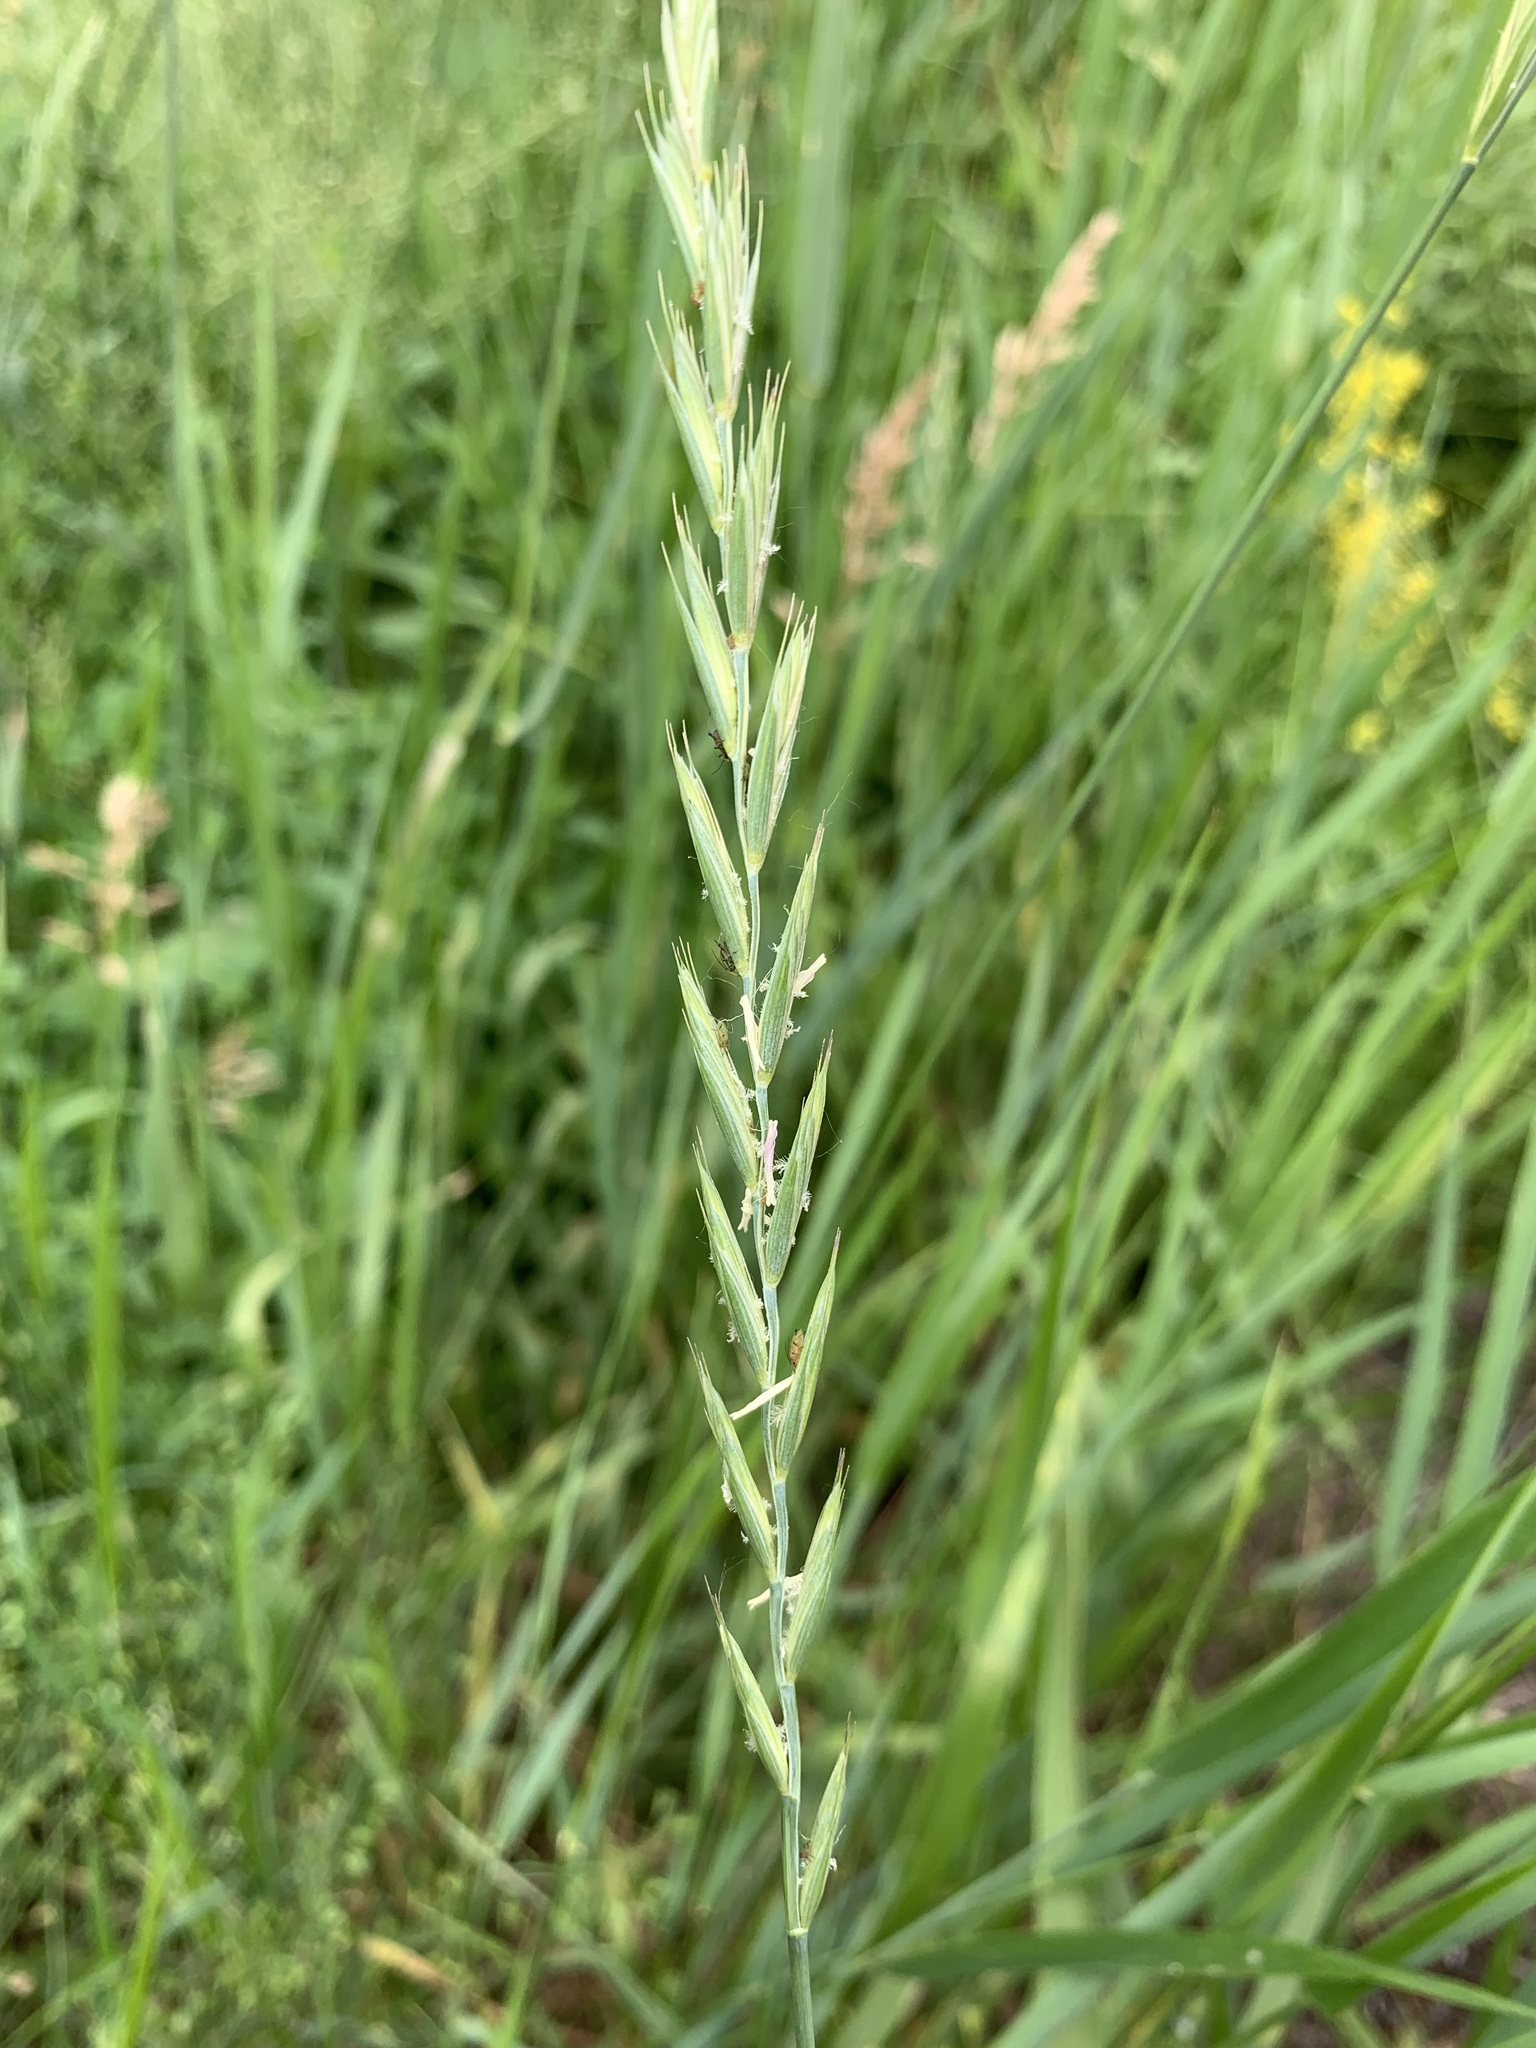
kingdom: Plantae
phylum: Tracheophyta
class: Liliopsida
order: Poales
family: Poaceae
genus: Elymus
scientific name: Elymus repens
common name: Quackgrass
